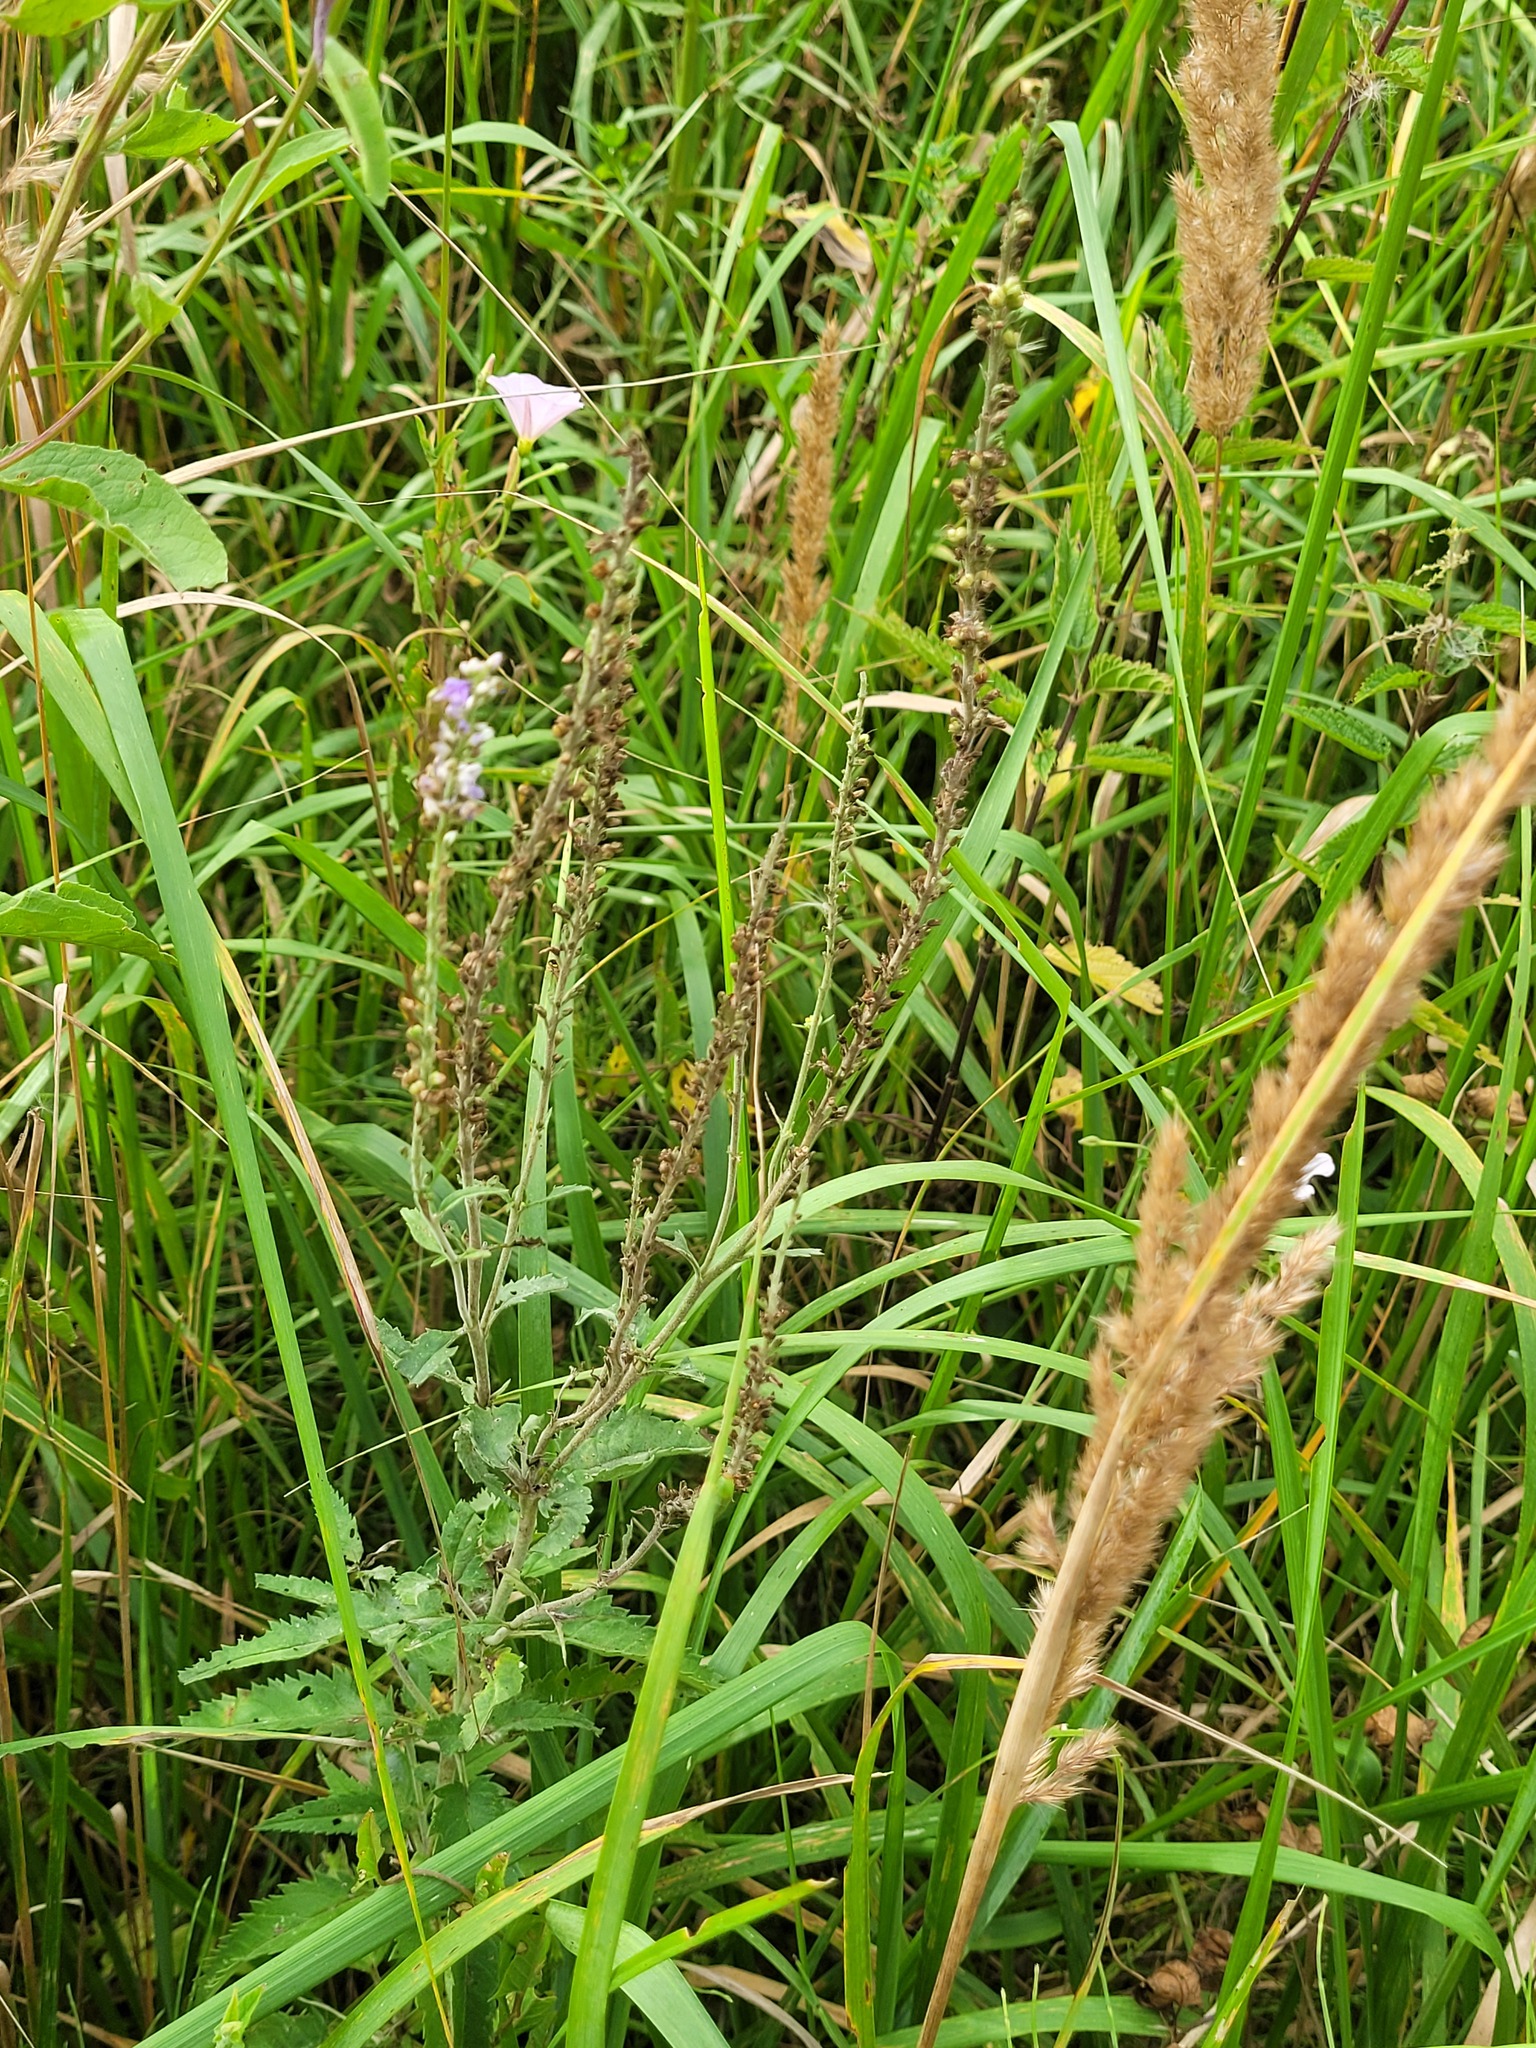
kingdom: Plantae
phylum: Tracheophyta
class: Magnoliopsida
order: Lamiales
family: Plantaginaceae
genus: Veronica
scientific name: Veronica longifolia
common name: Garden speedwell
